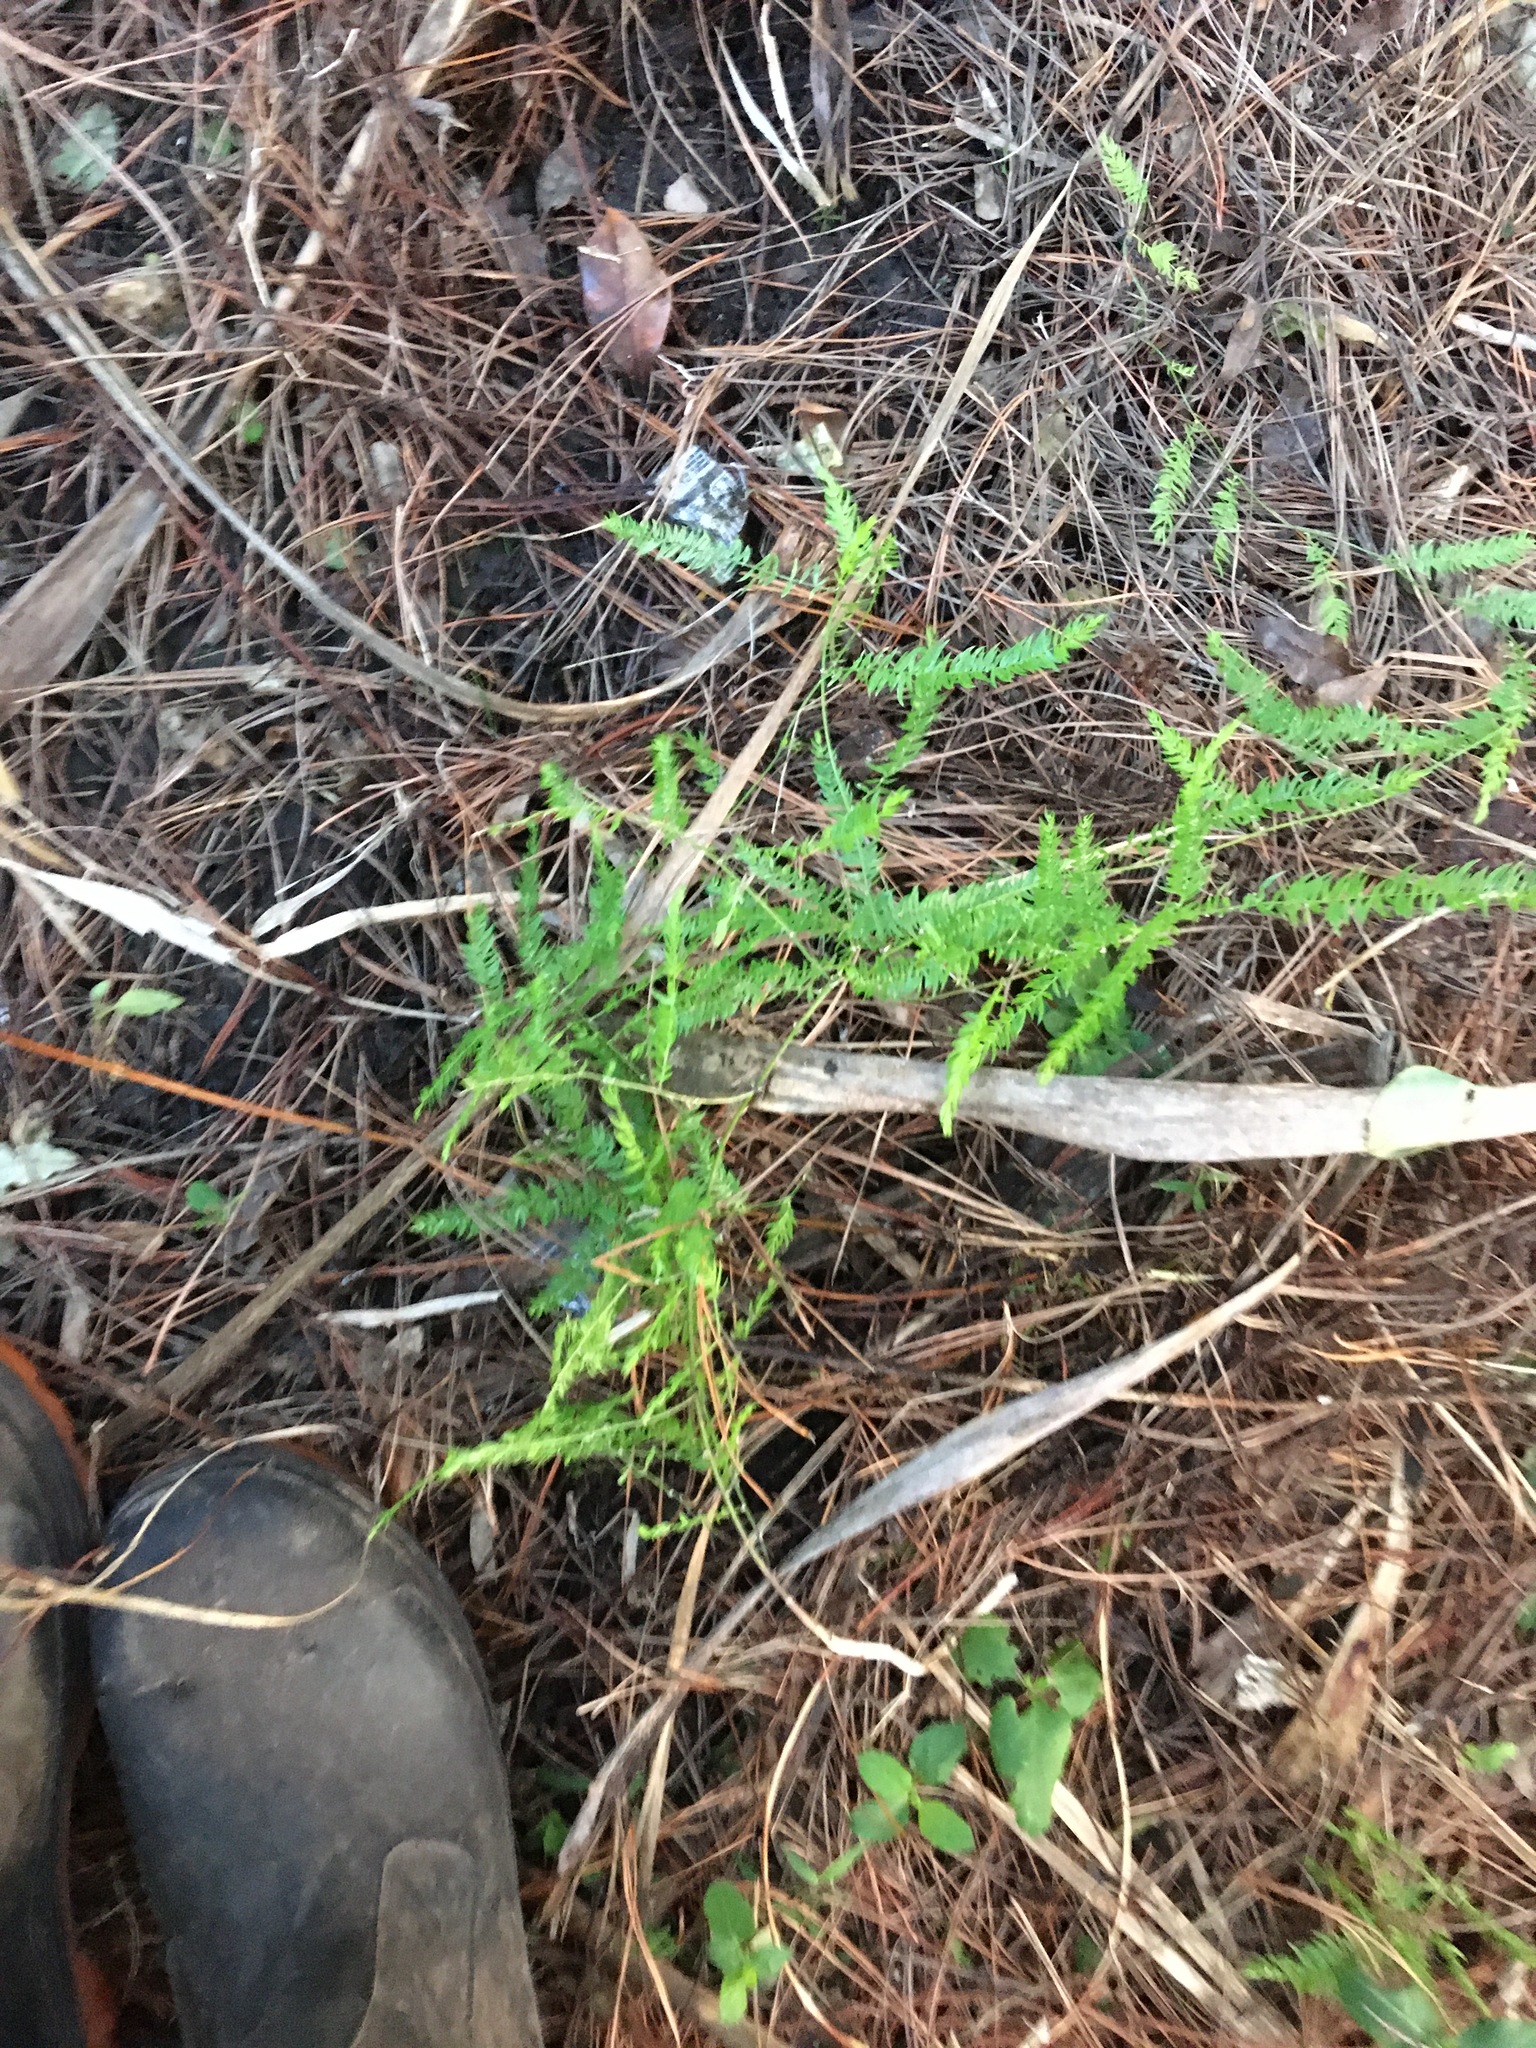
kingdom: Plantae
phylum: Tracheophyta
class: Liliopsida
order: Asparagales
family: Asparagaceae
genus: Asparagus
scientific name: Asparagus scandens
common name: Asparagus-fern
